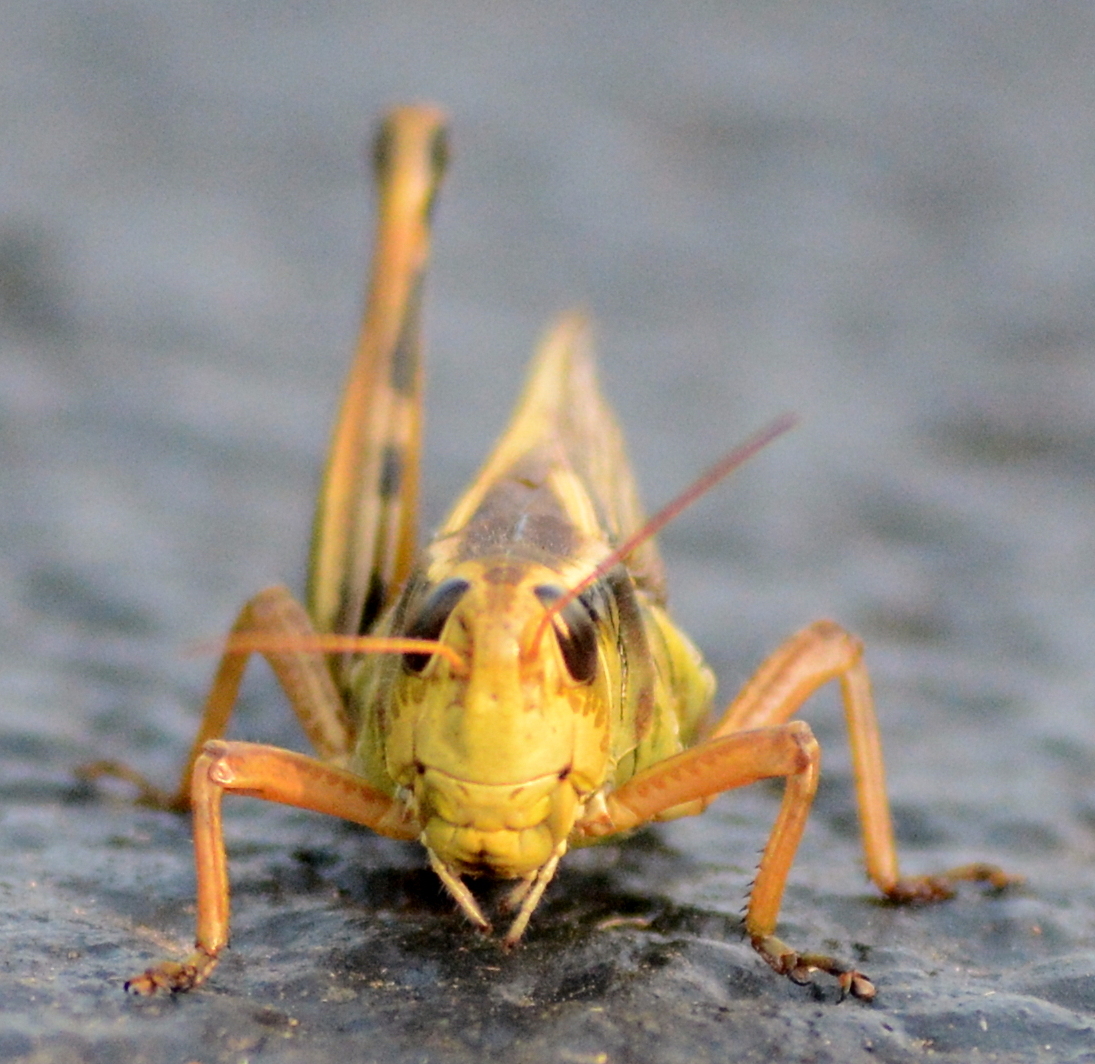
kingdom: Animalia
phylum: Arthropoda
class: Insecta
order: Orthoptera
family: Acrididae
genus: Melanoplus
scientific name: Melanoplus bivittatus
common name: Two-striped grasshopper
